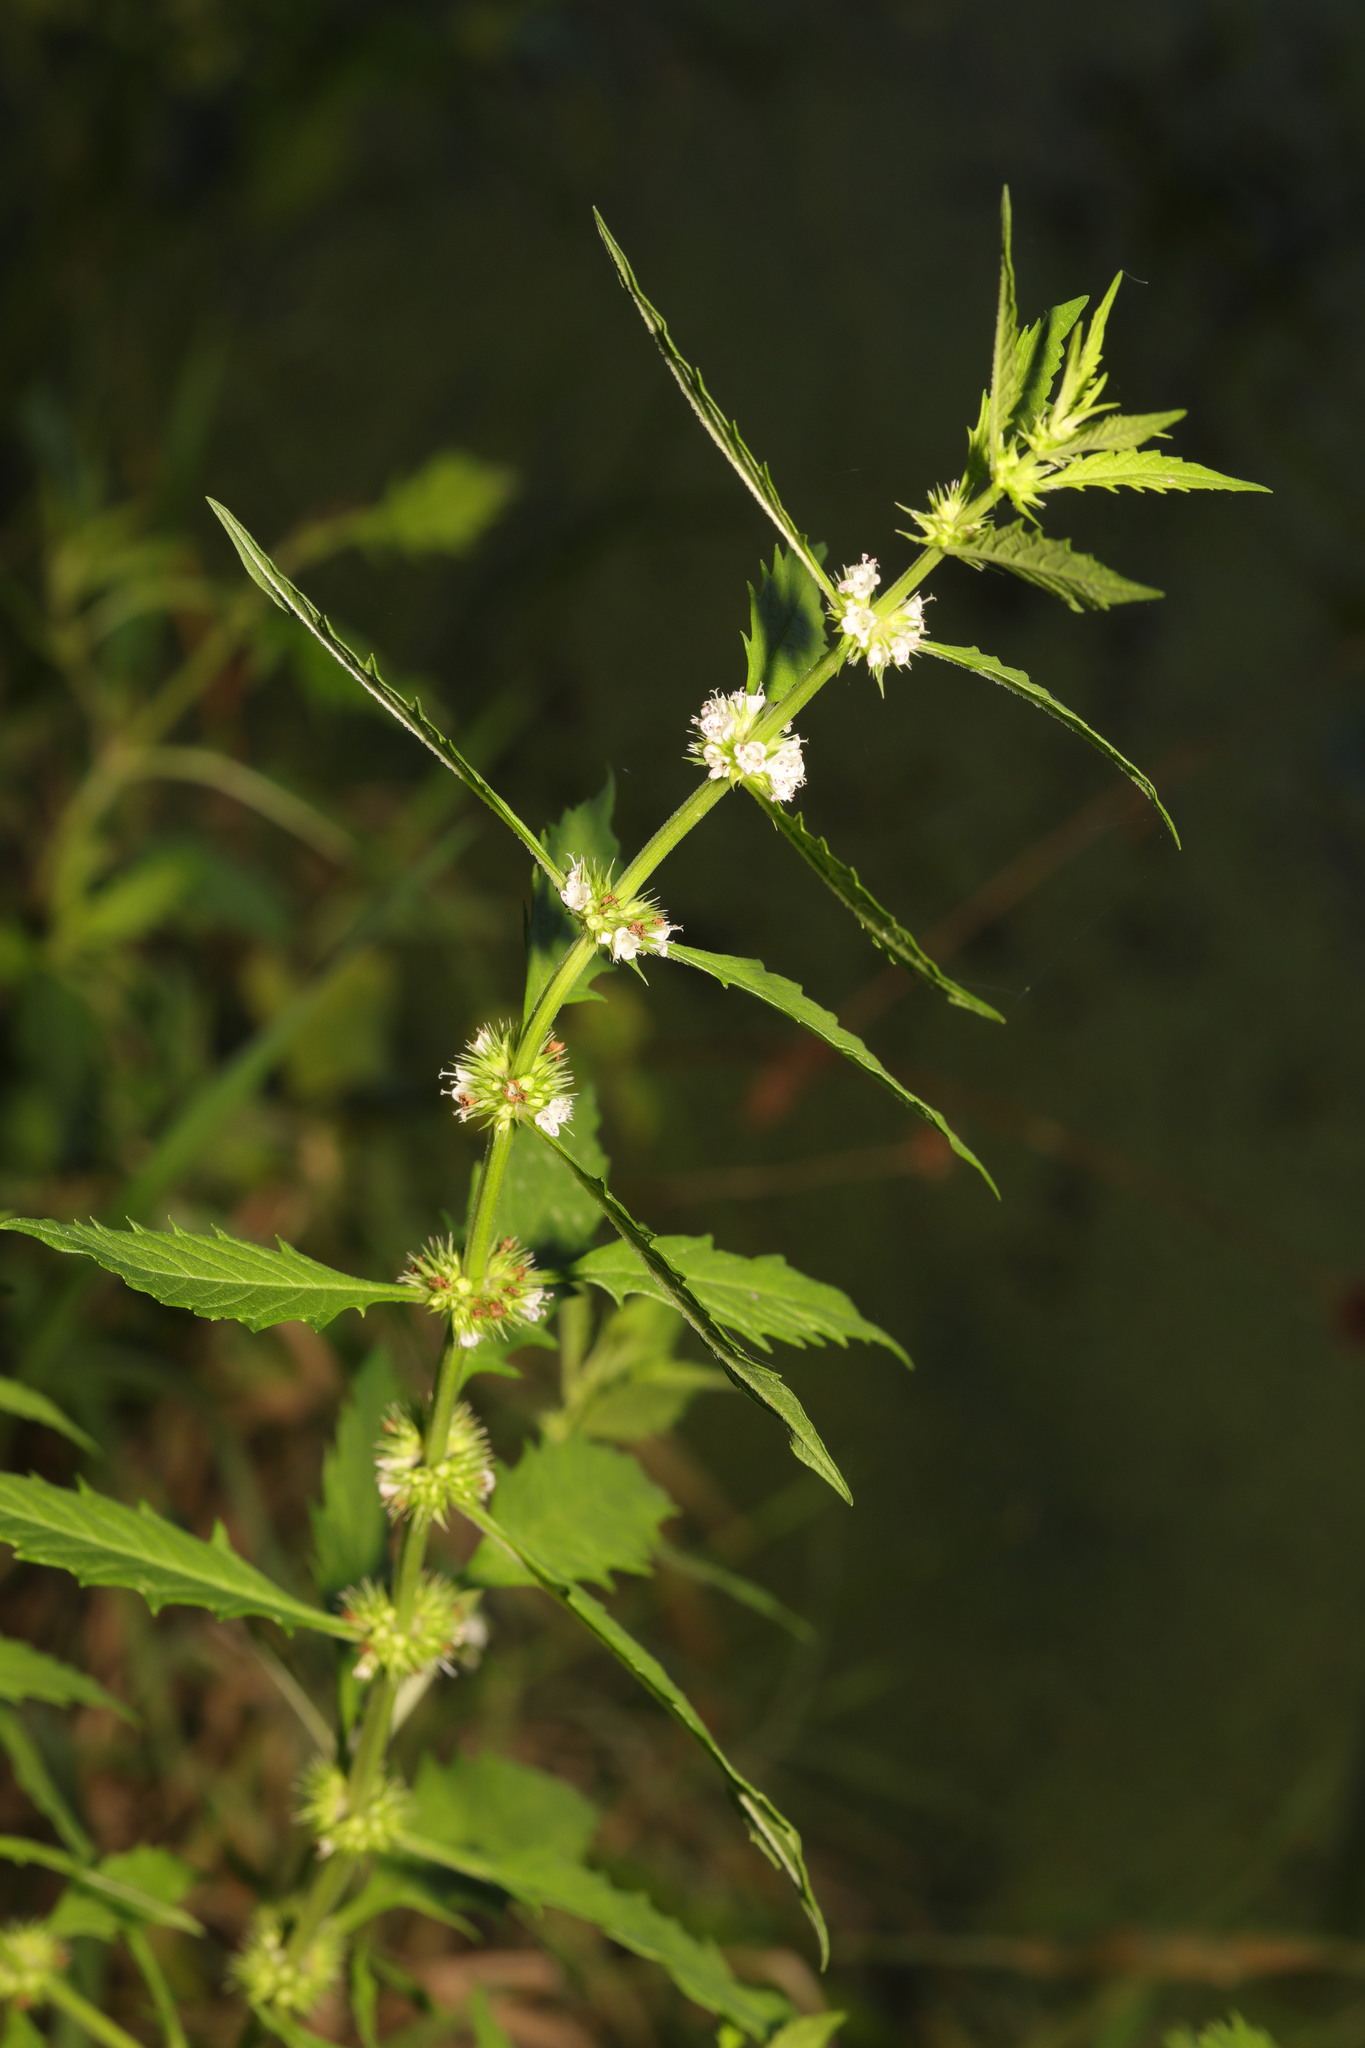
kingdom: Plantae
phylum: Tracheophyta
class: Magnoliopsida
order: Lamiales
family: Lamiaceae
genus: Lycopus
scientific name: Lycopus europaeus
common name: European bugleweed
